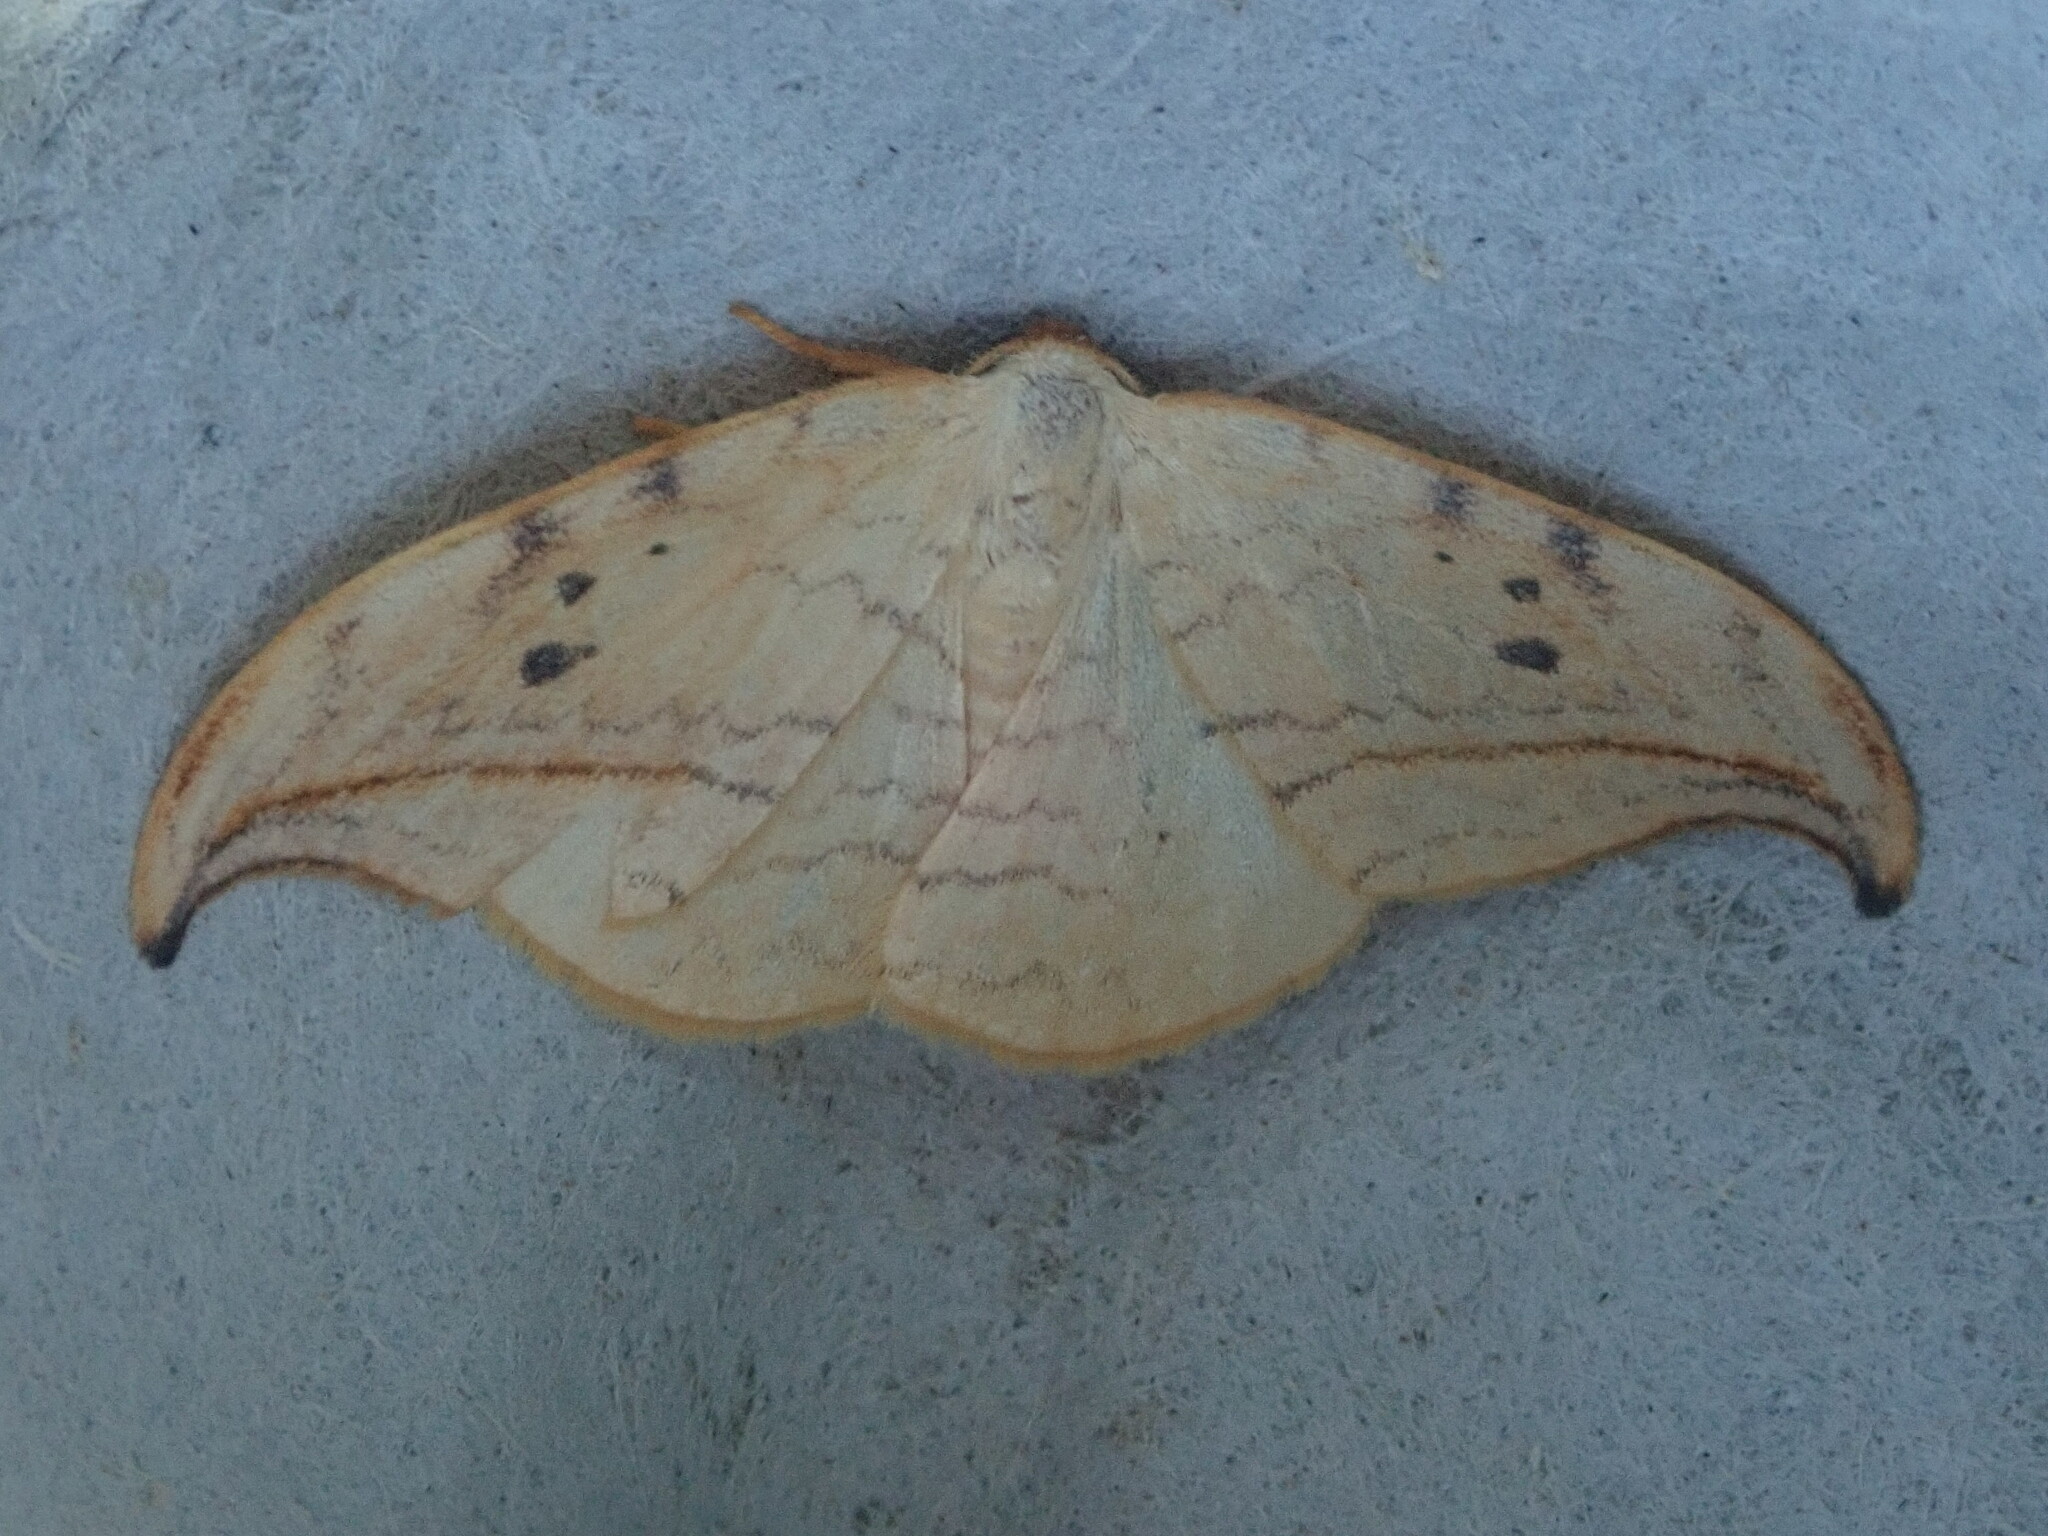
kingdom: Animalia
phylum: Arthropoda
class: Insecta
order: Lepidoptera
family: Drepanidae
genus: Drepana
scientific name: Drepana arcuata
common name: Arched hooktip moth
